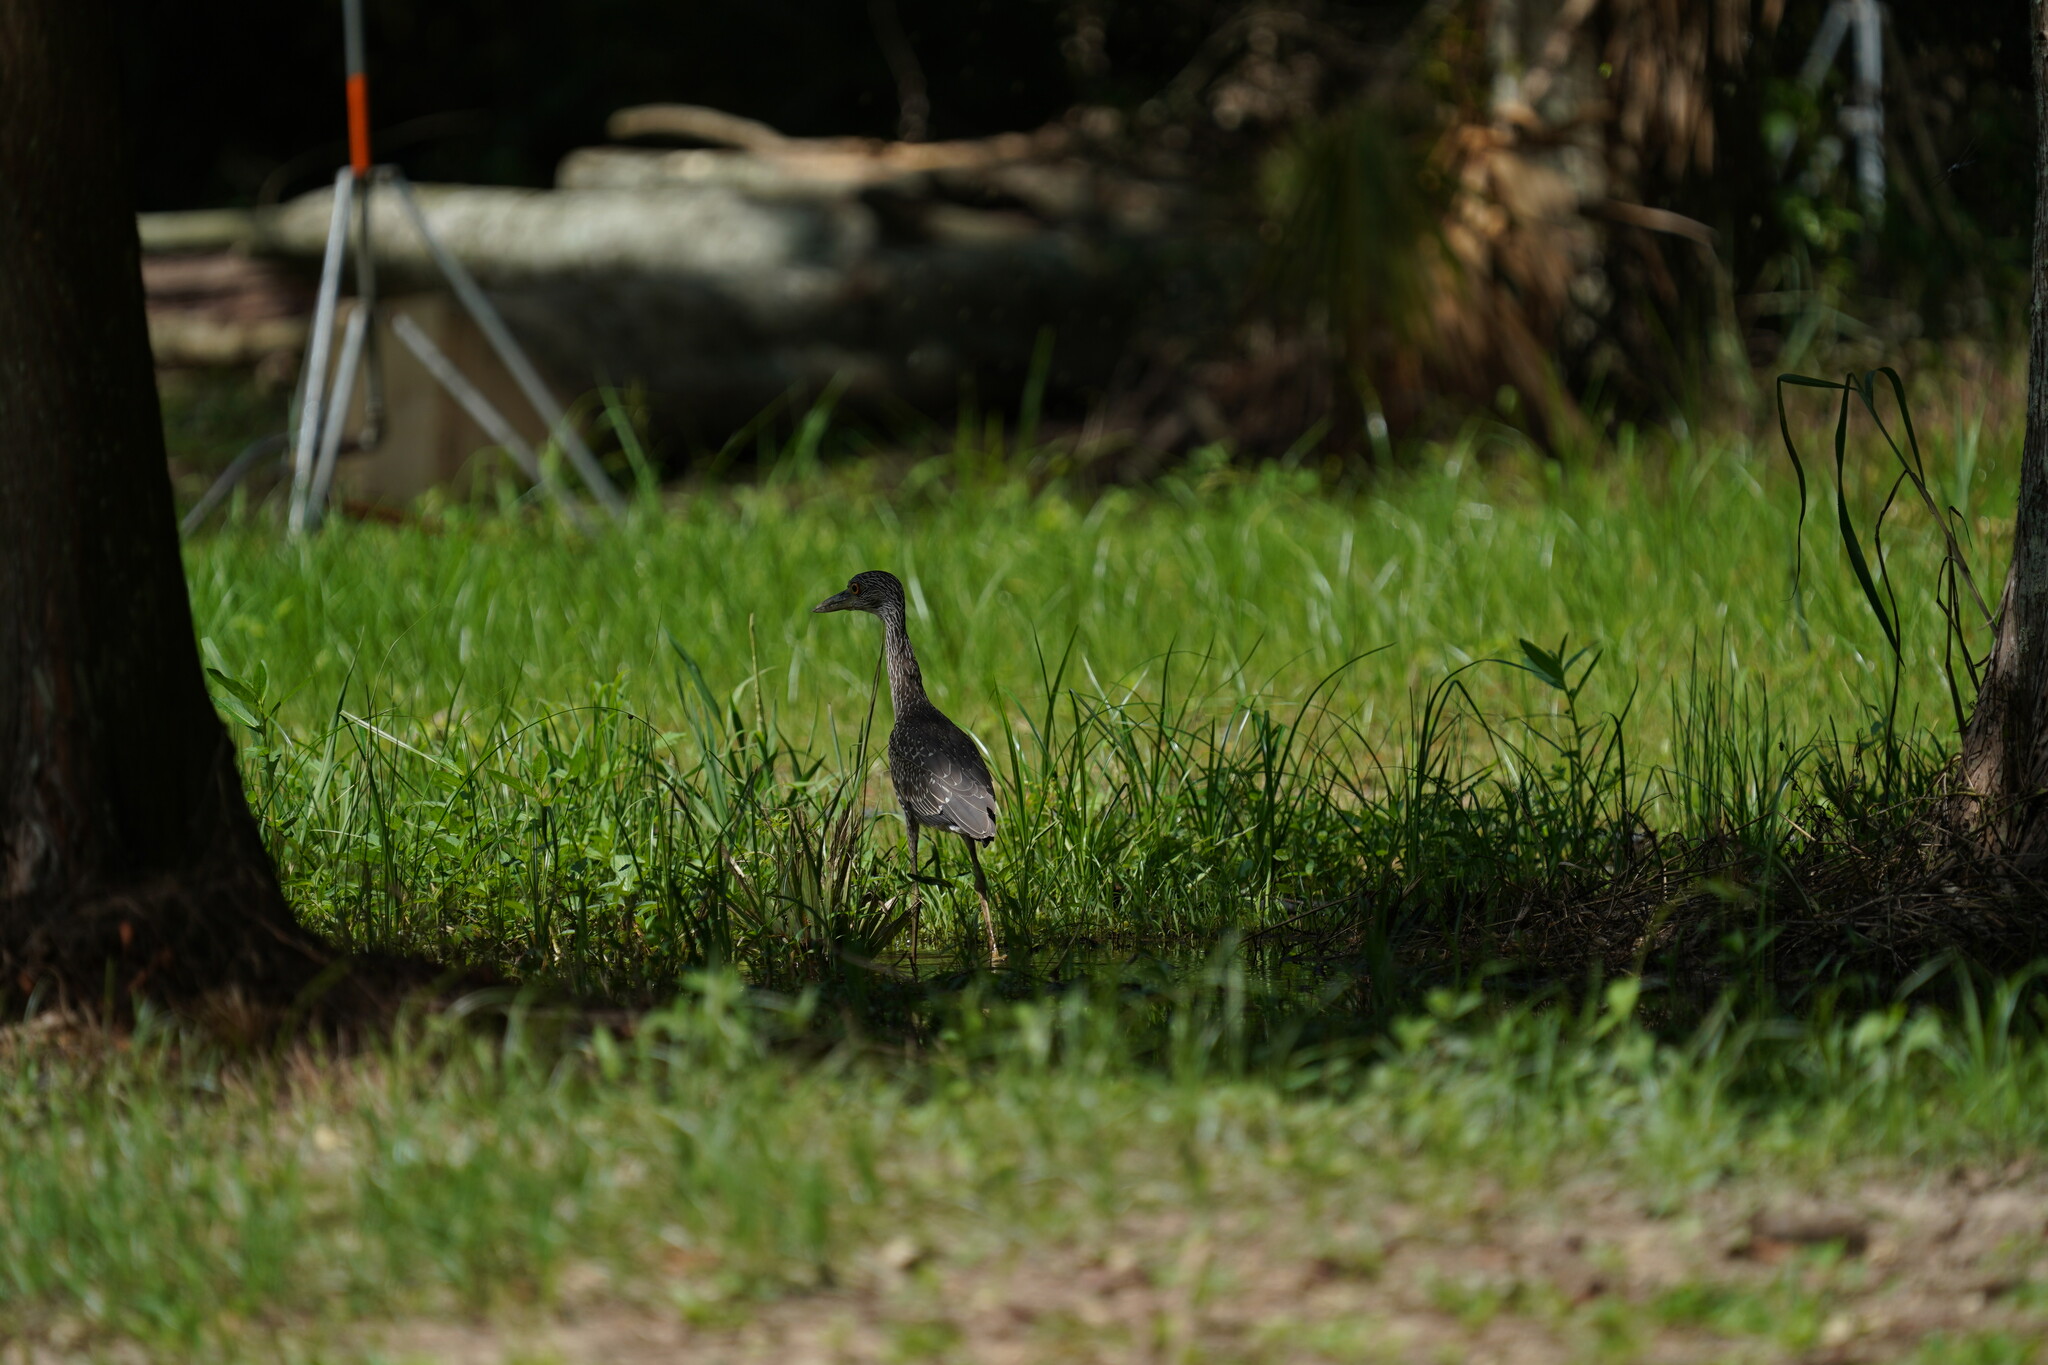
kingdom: Animalia
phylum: Chordata
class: Aves
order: Pelecaniformes
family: Ardeidae
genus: Nyctanassa
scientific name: Nyctanassa violacea
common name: Yellow-crowned night heron
